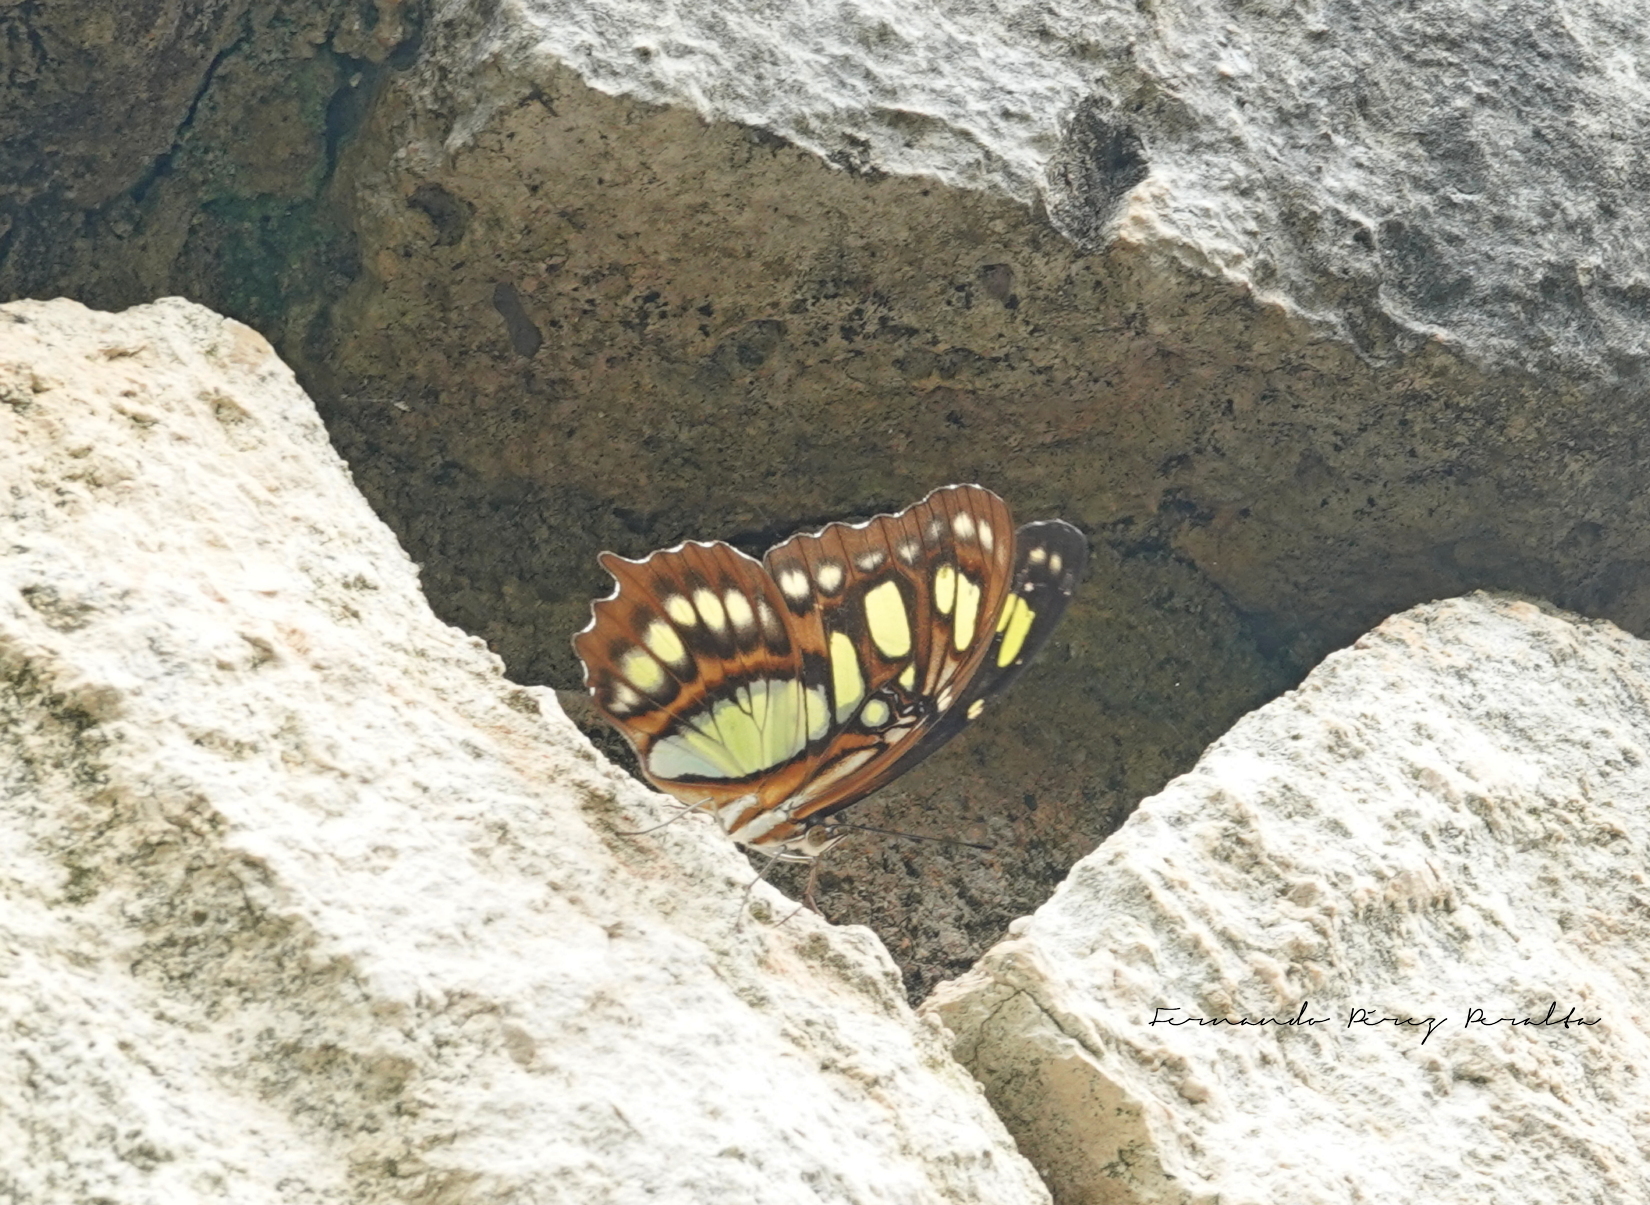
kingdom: Animalia
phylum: Arthropoda
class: Insecta
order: Lepidoptera
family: Nymphalidae
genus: Siproeta
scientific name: Siproeta stelenes
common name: Malachite
